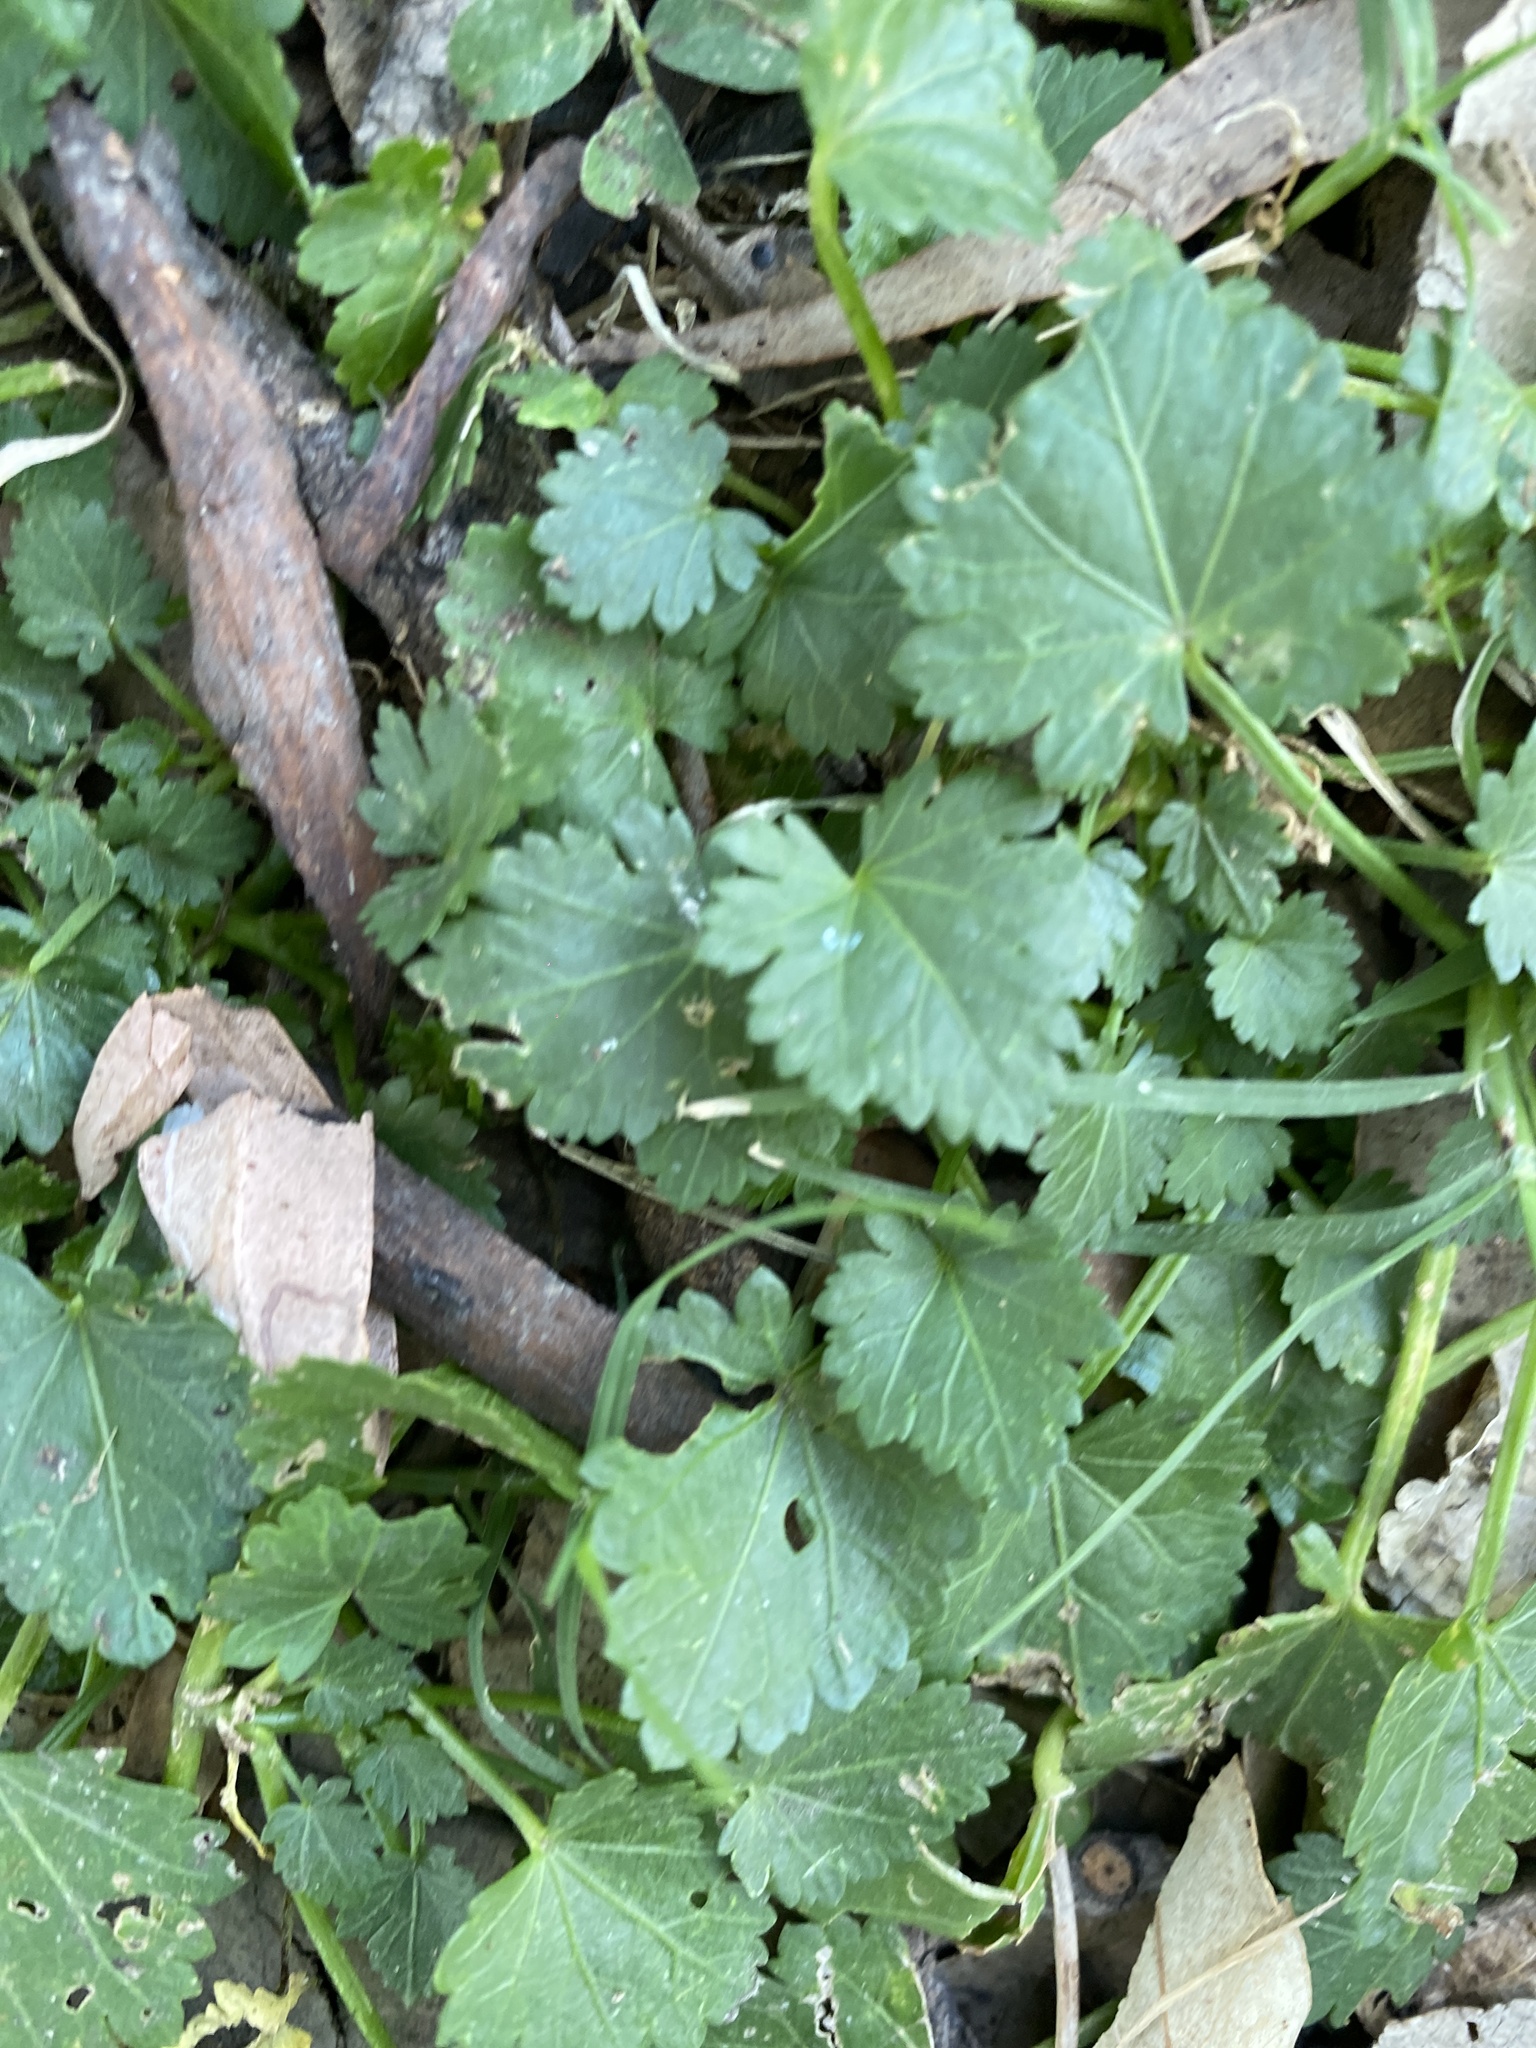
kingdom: Plantae
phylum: Tracheophyta
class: Magnoliopsida
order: Malvales
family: Malvaceae
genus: Modiola
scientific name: Modiola caroliniana
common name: Carolina bristlemallow
